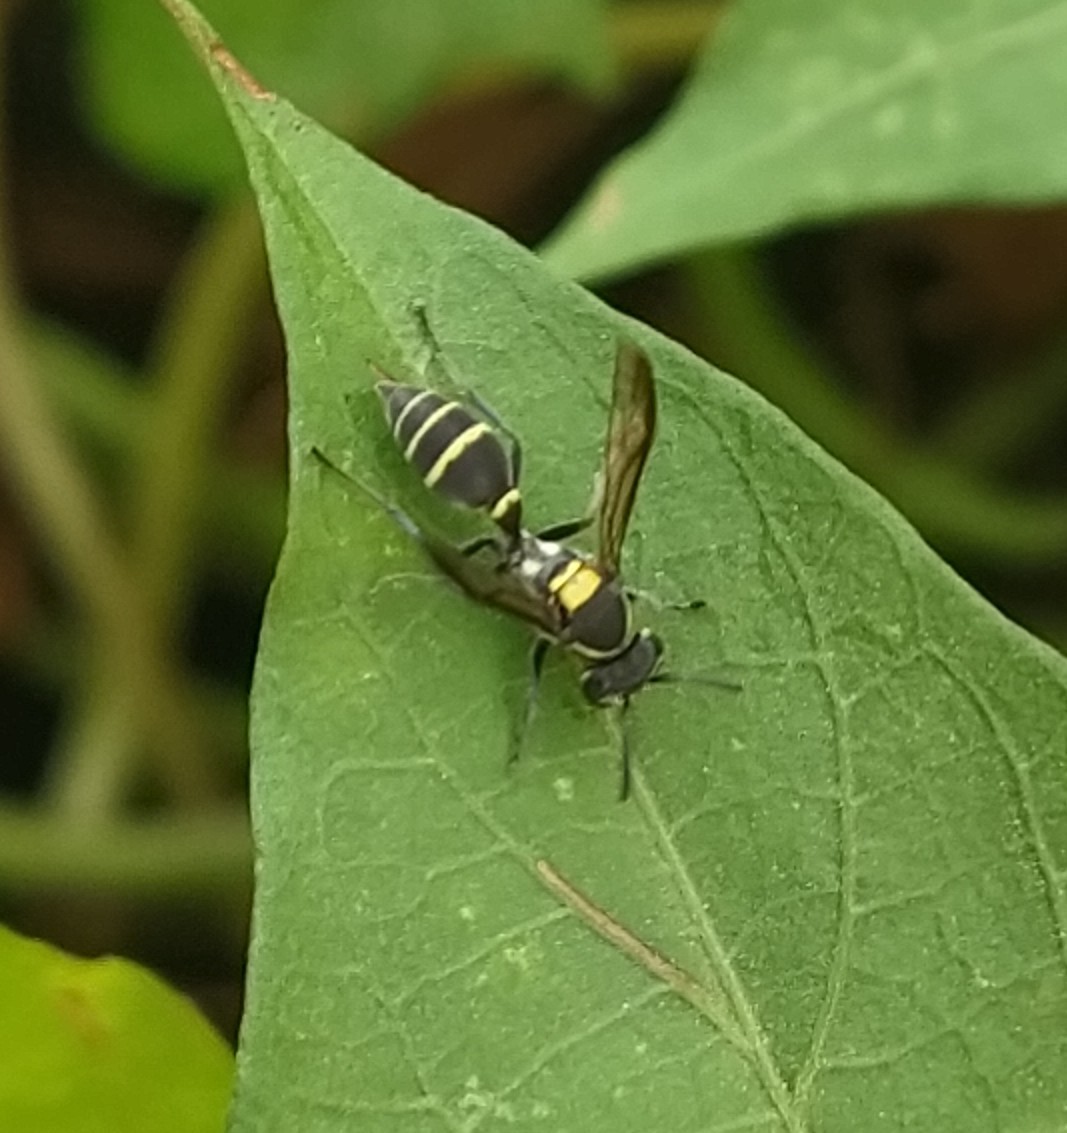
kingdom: Animalia
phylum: Arthropoda
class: Insecta
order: Hymenoptera
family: Eumenidae
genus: Polybia
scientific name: Polybia occidentalis
